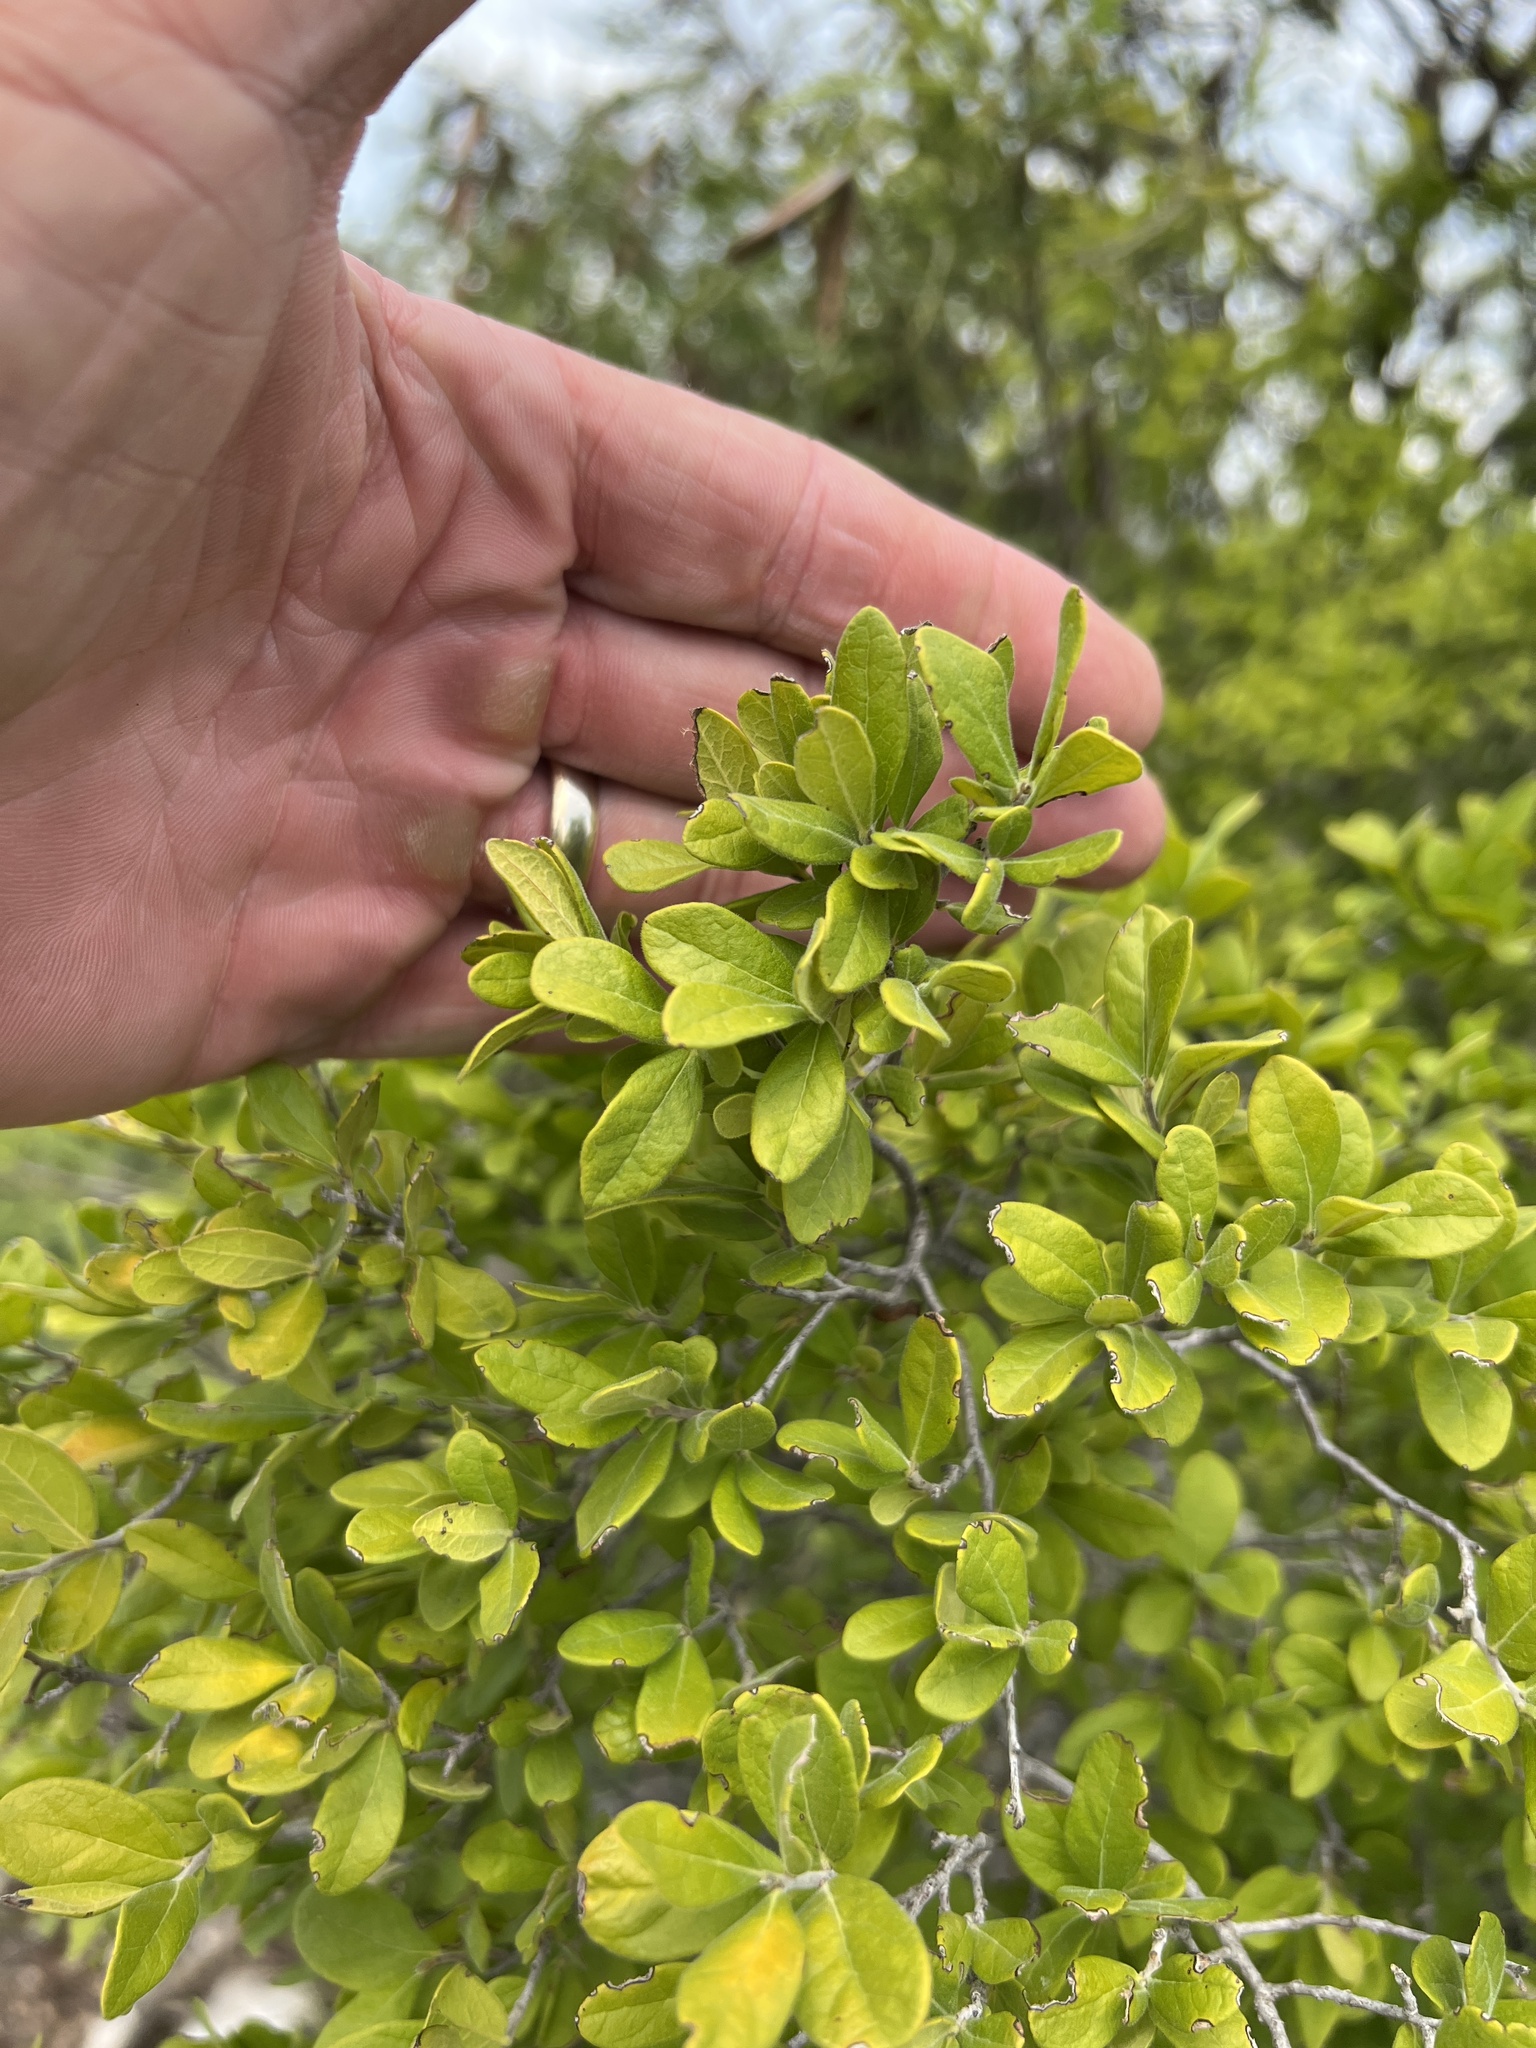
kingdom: Plantae
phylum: Tracheophyta
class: Magnoliopsida
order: Ericales
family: Ebenaceae
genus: Diospyros
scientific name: Diospyros texana
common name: Texas persimmon
